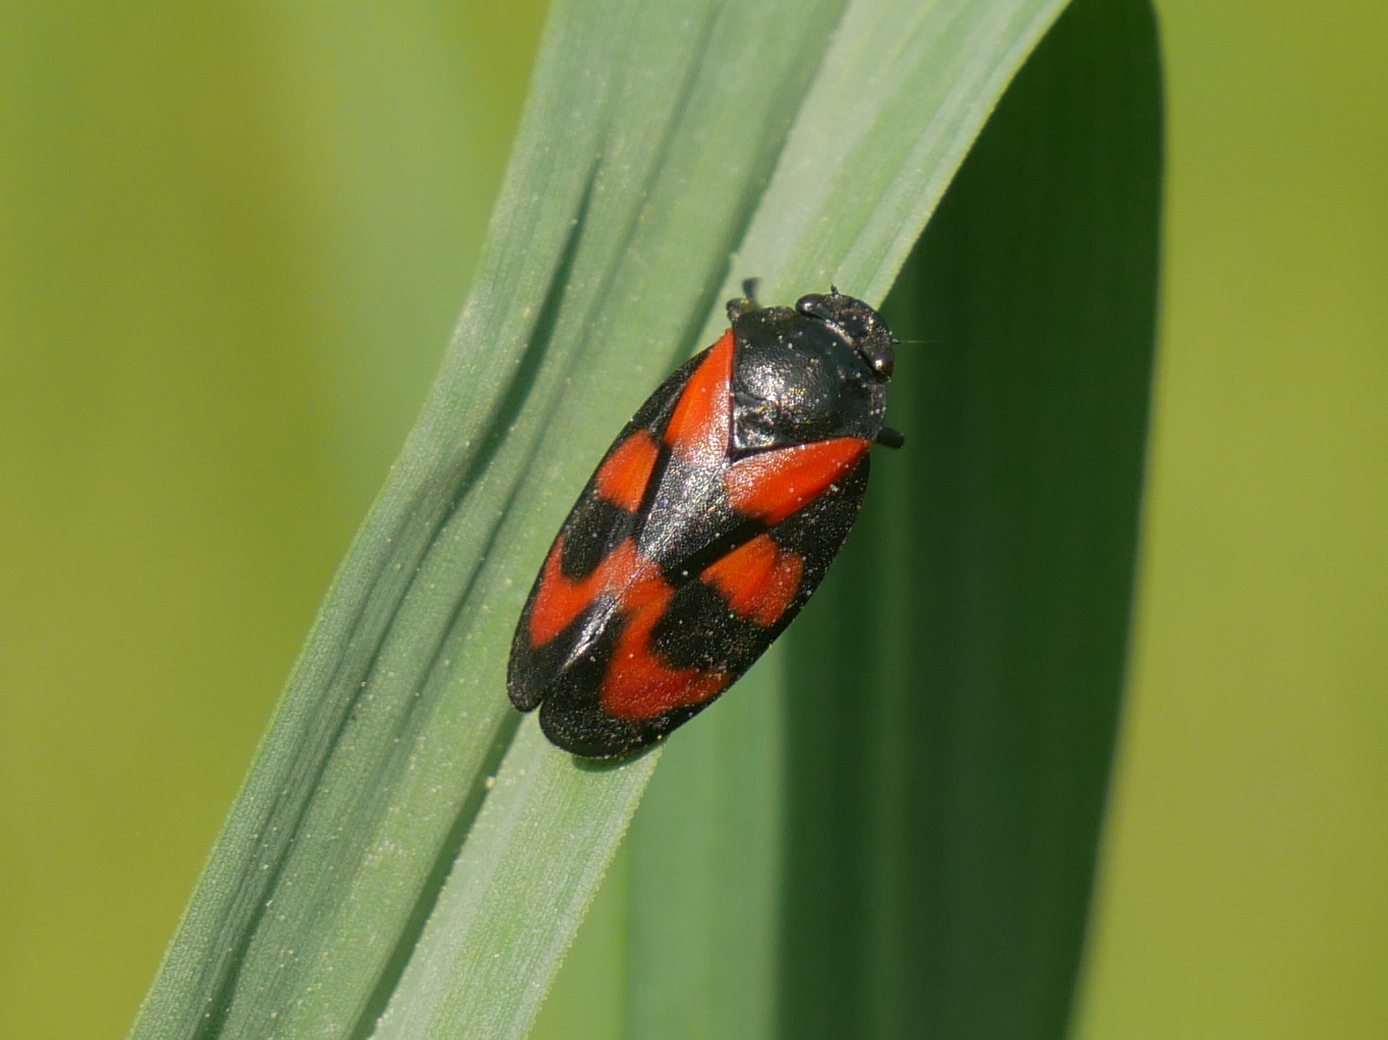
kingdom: Animalia
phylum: Arthropoda
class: Insecta
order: Hemiptera
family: Cercopidae
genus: Cercopis
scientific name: Cercopis vulnerata
